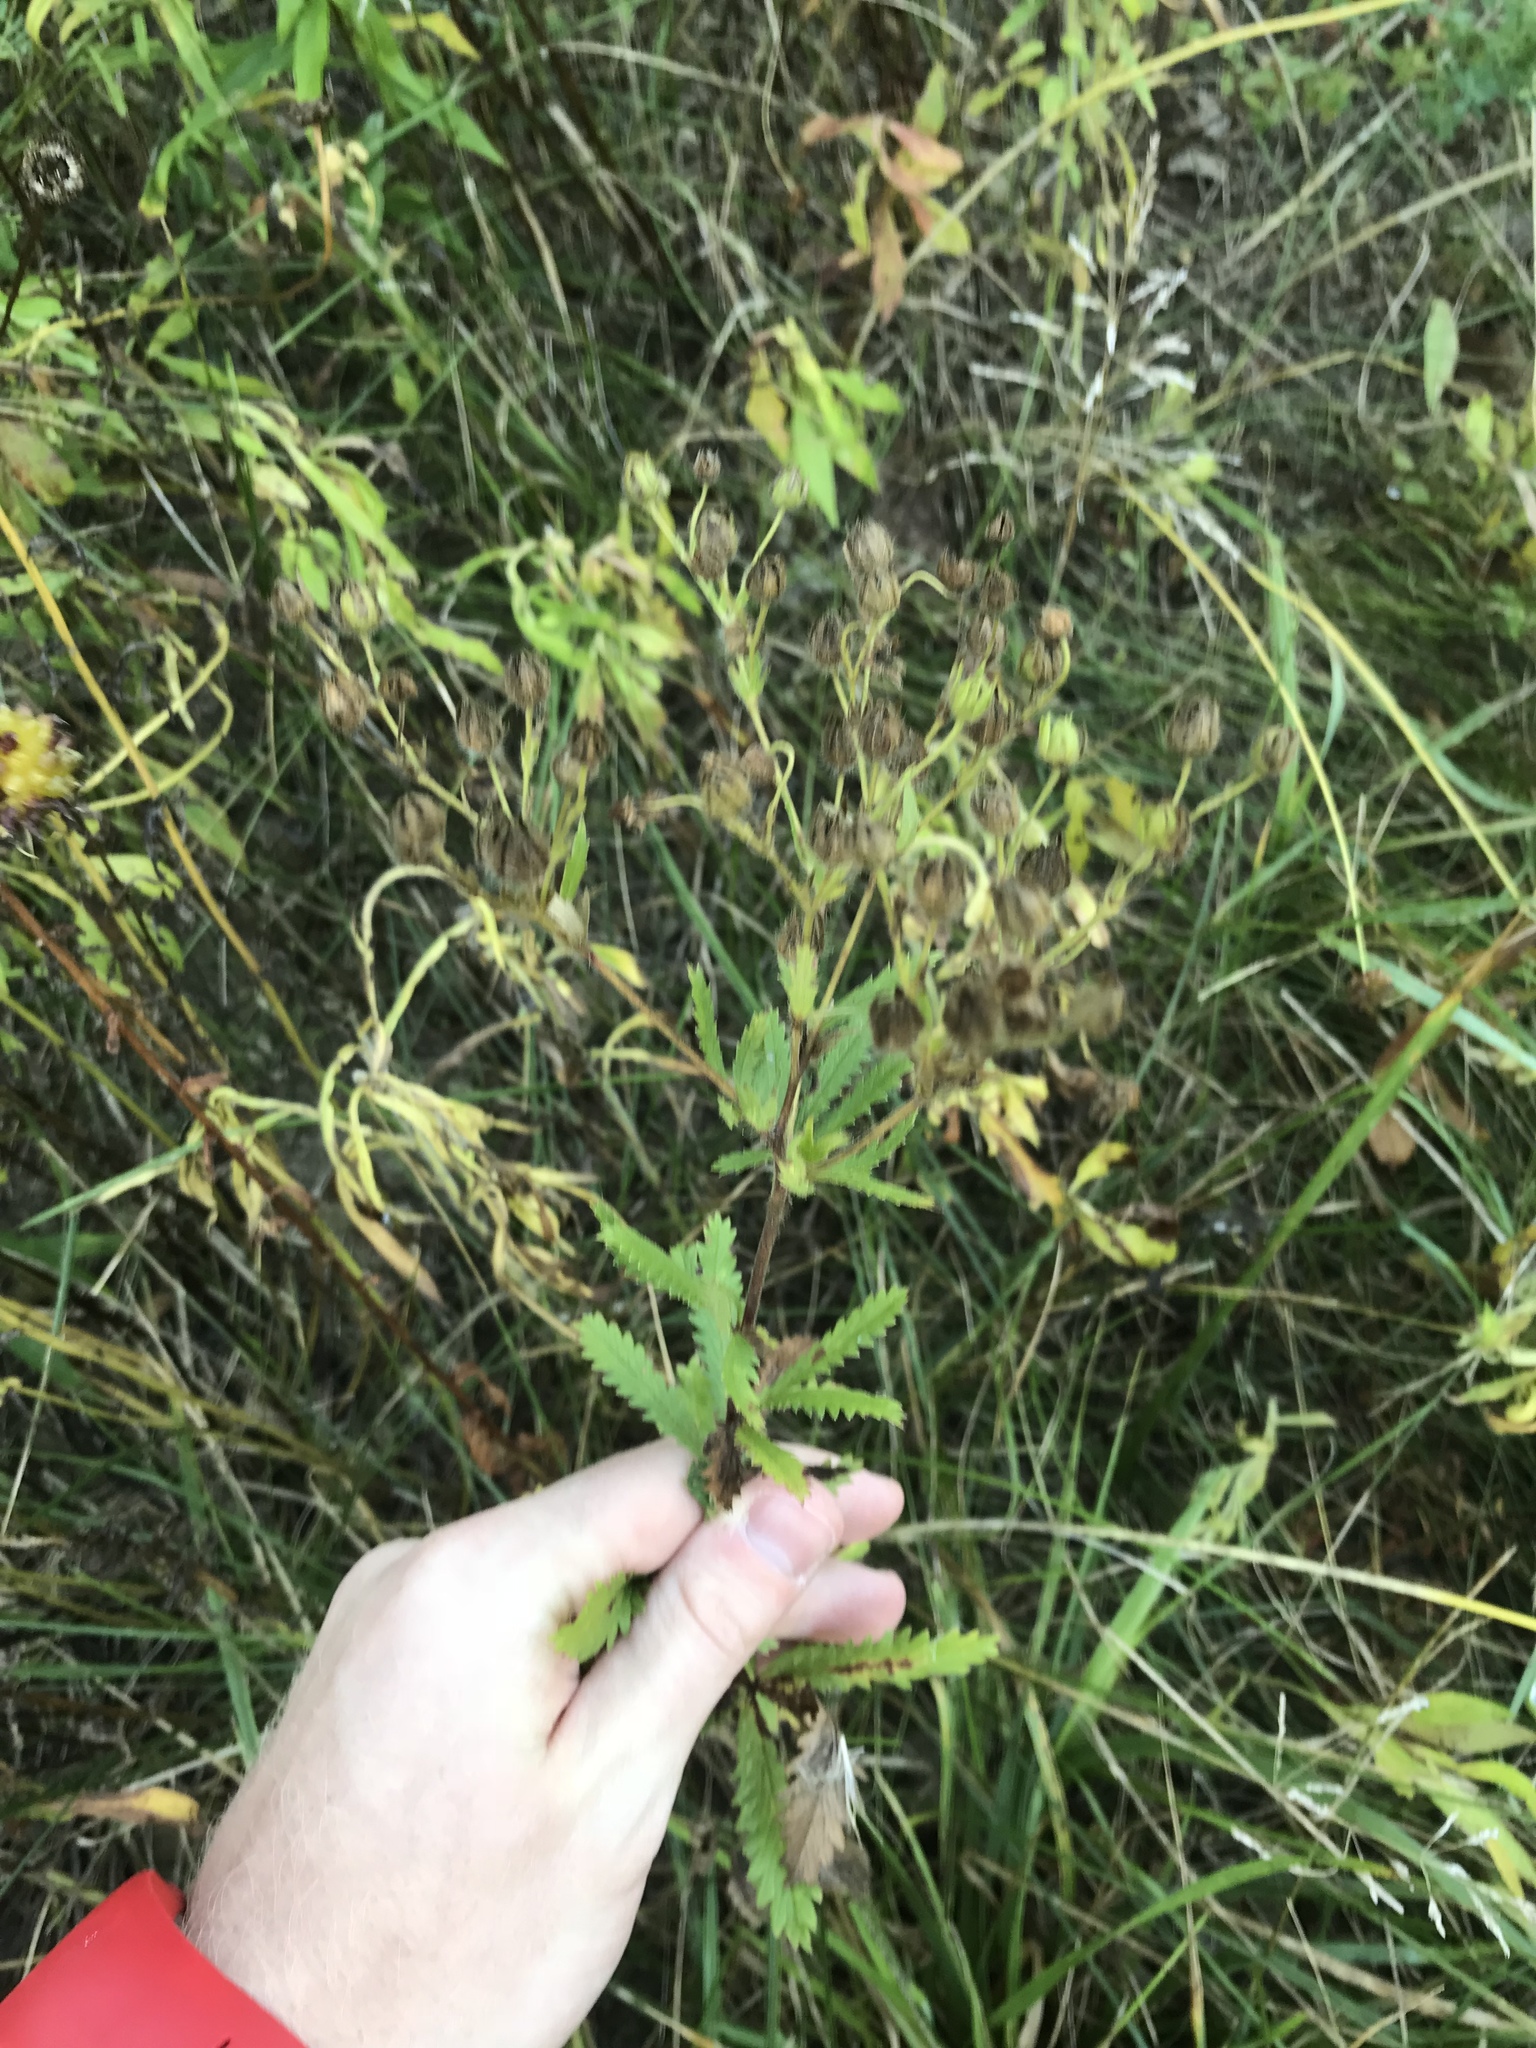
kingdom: Plantae
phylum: Tracheophyta
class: Magnoliopsida
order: Rosales
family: Rosaceae
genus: Potentilla
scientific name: Potentilla recta
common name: Sulphur cinquefoil
